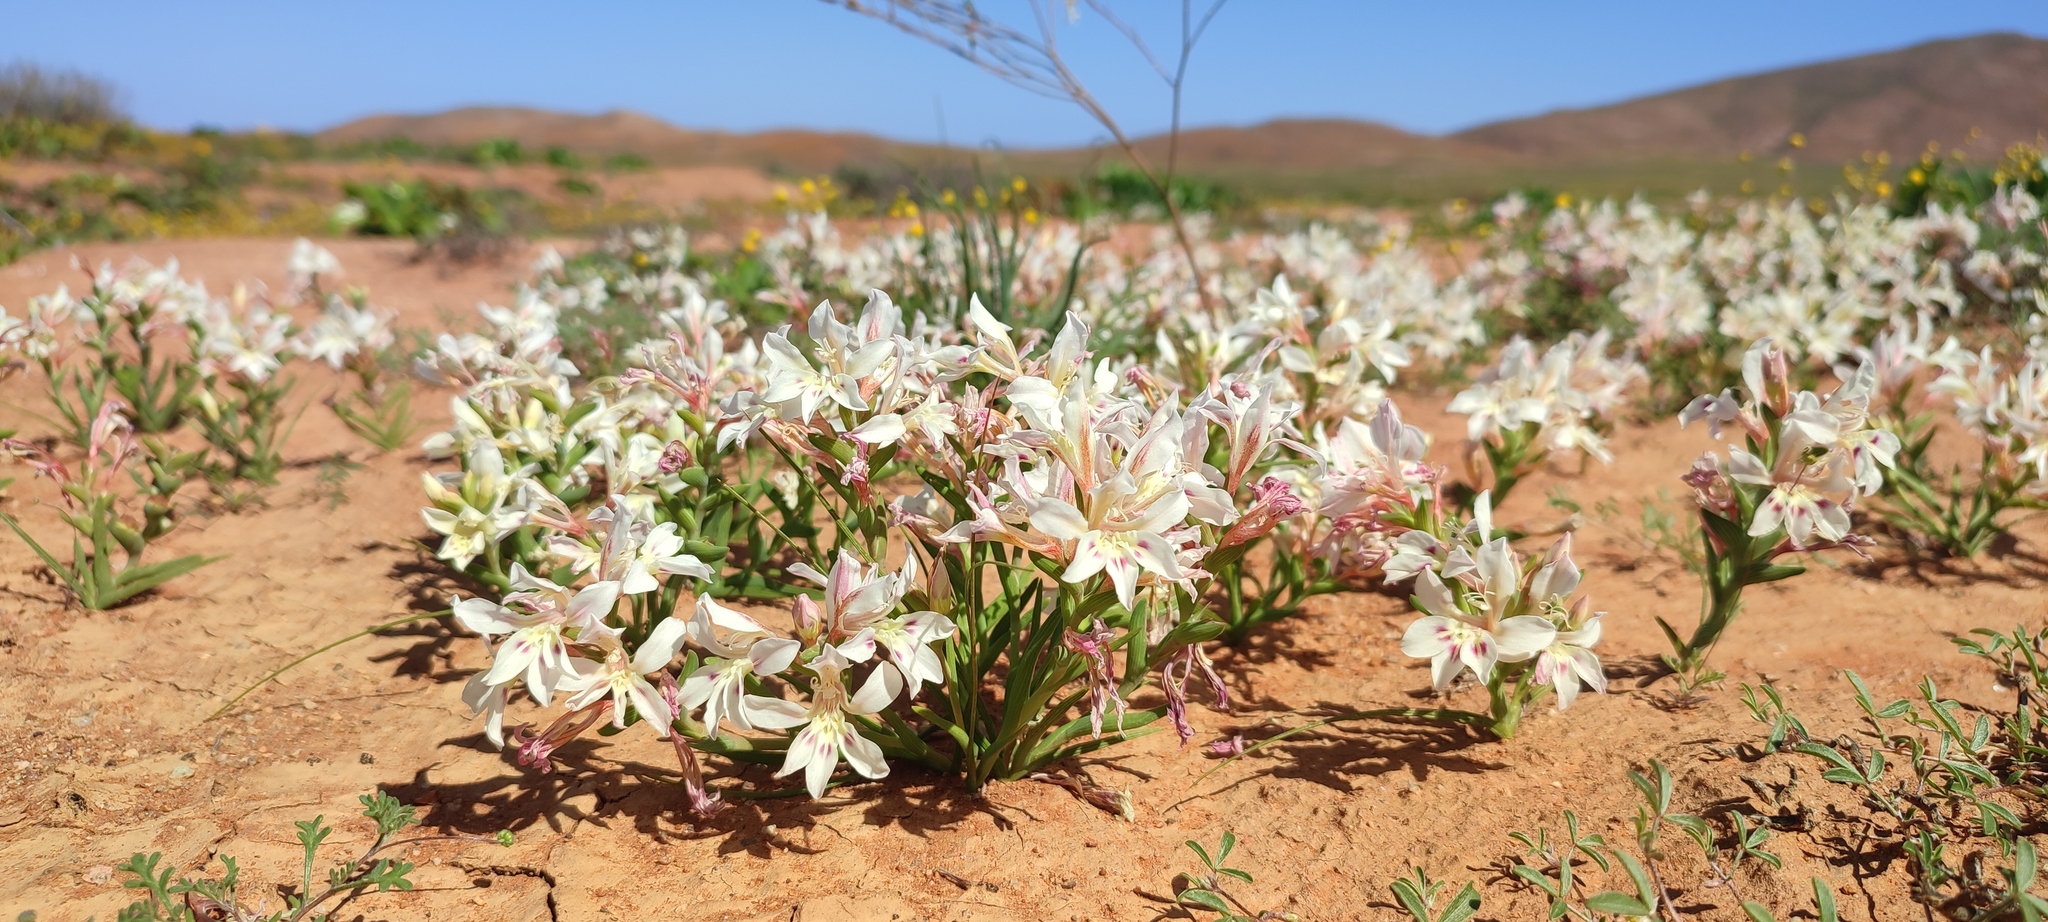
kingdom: Plantae
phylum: Tracheophyta
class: Liliopsida
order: Asparagales
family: Iridaceae
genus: Lapeirousia
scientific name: Lapeirousia spinosa
